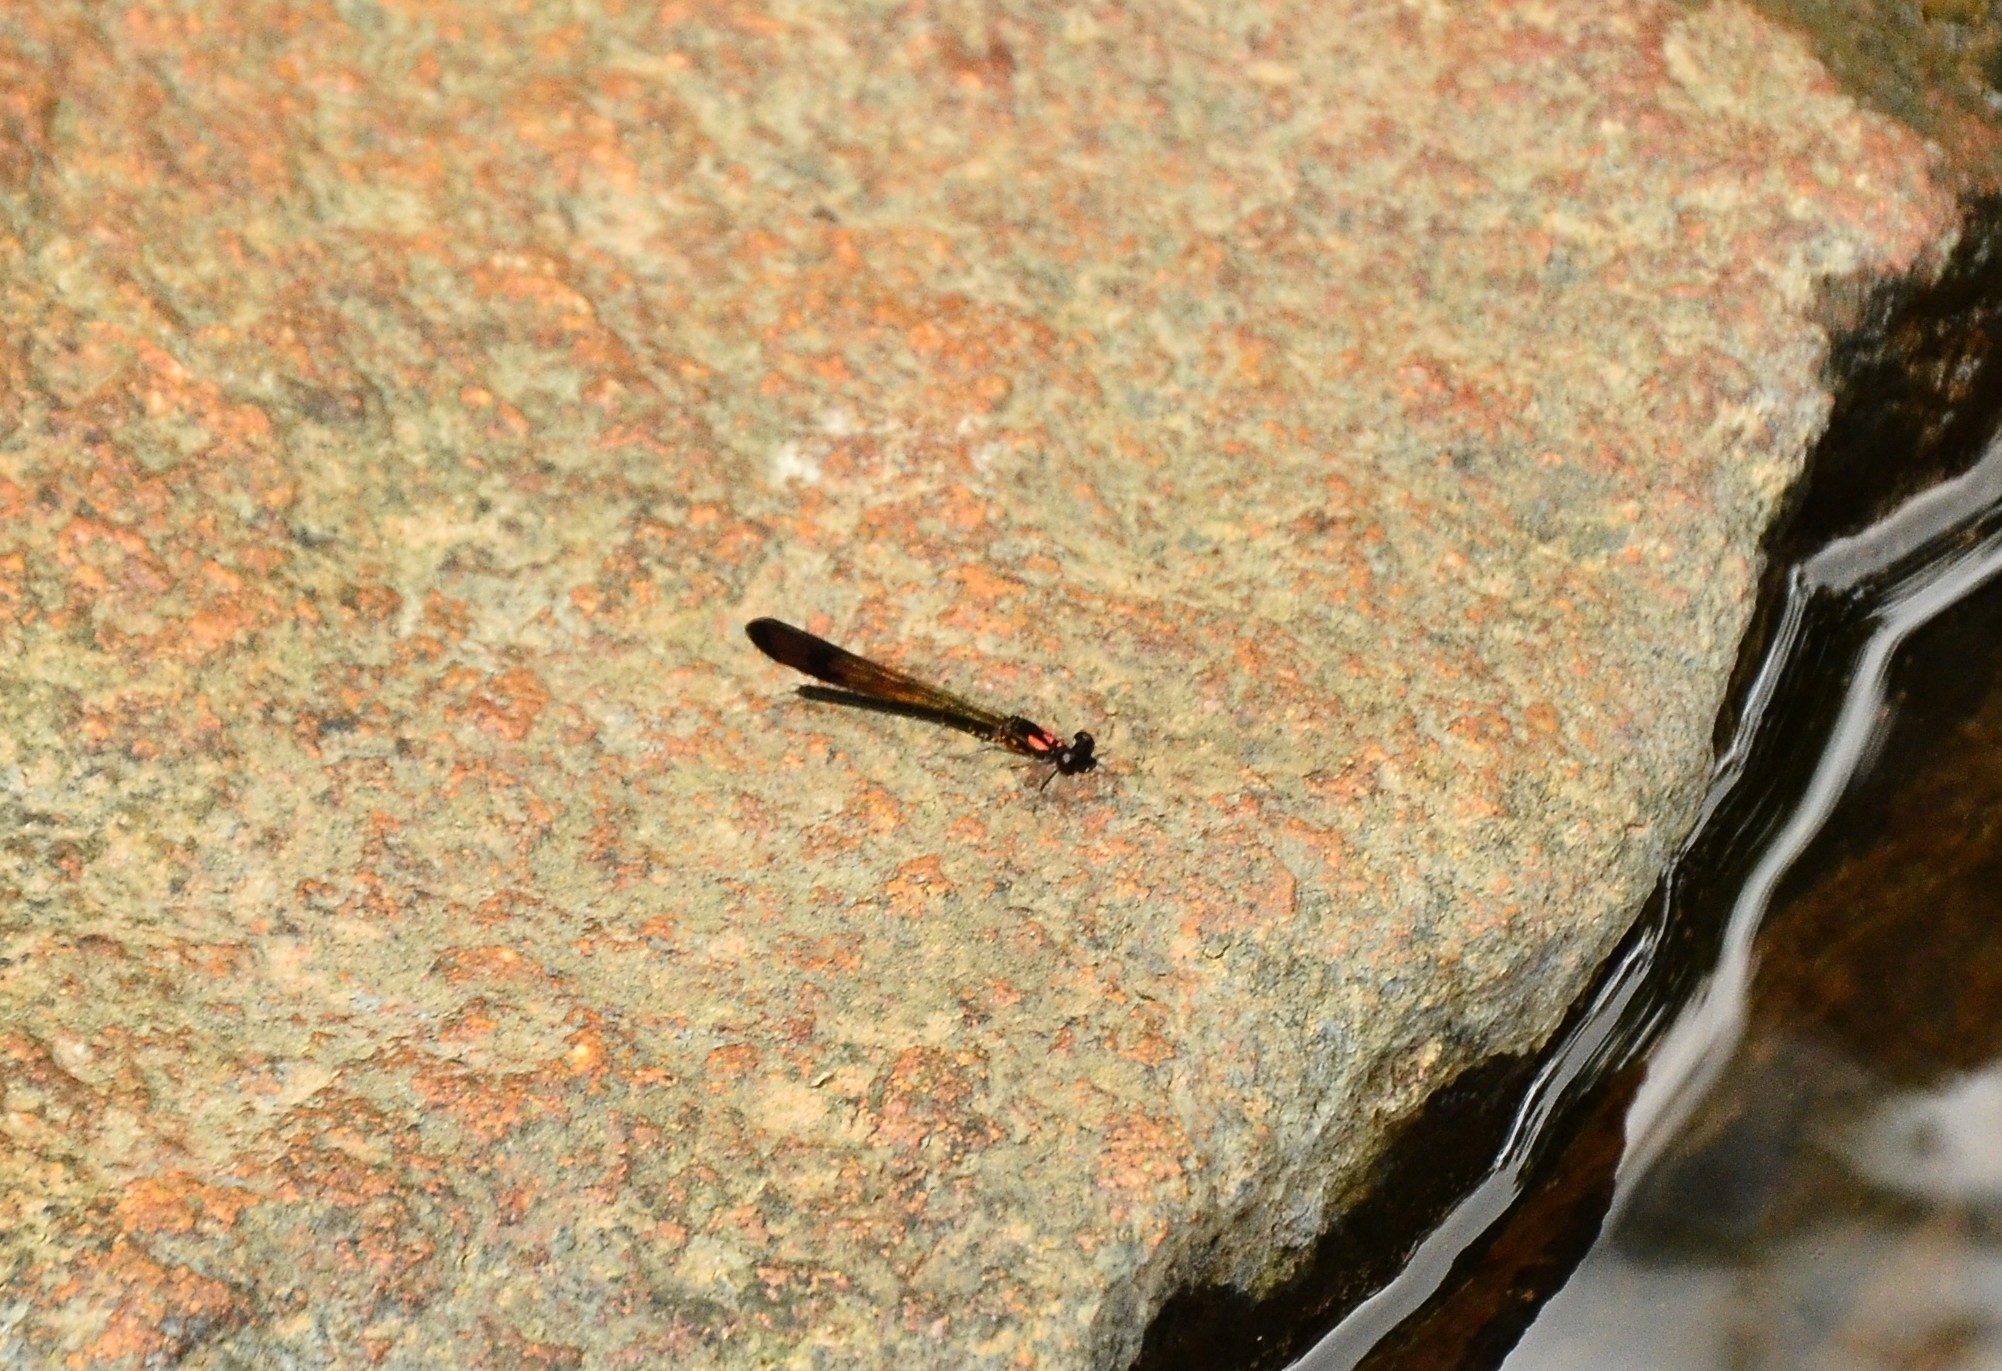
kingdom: Animalia
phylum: Arthropoda
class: Insecta
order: Odonata
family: Chlorocyphidae
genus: Heliocypha
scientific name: Heliocypha bisignata
